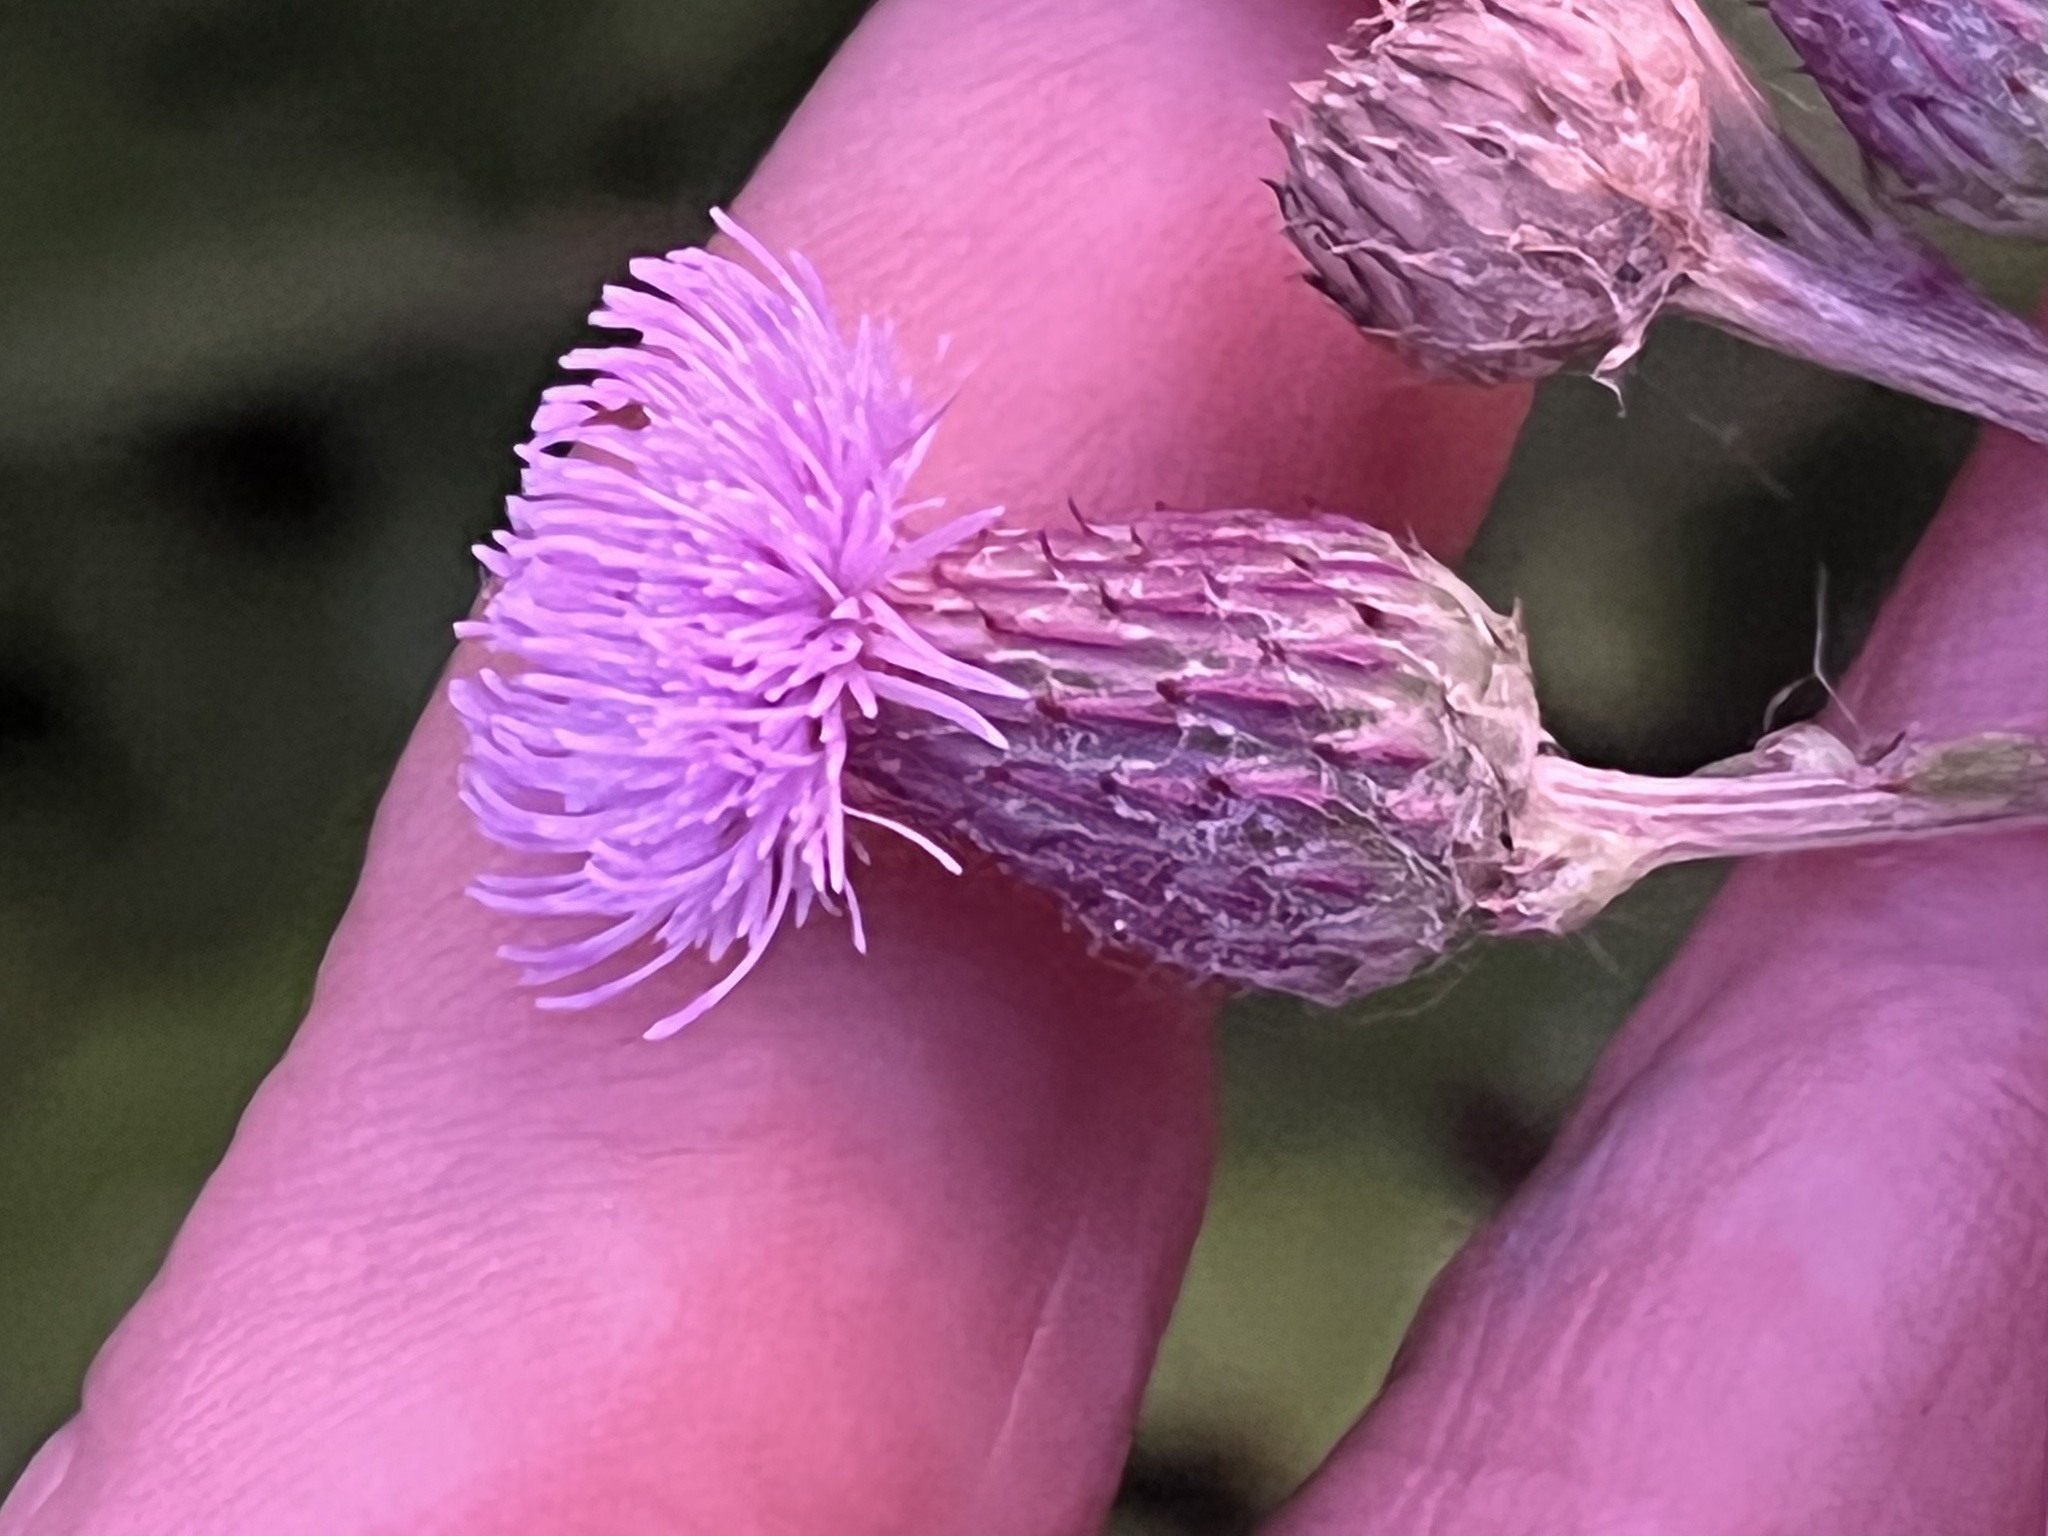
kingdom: Plantae
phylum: Tracheophyta
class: Magnoliopsida
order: Asterales
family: Asteraceae
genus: Cirsium
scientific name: Cirsium arvense
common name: Creeping thistle
